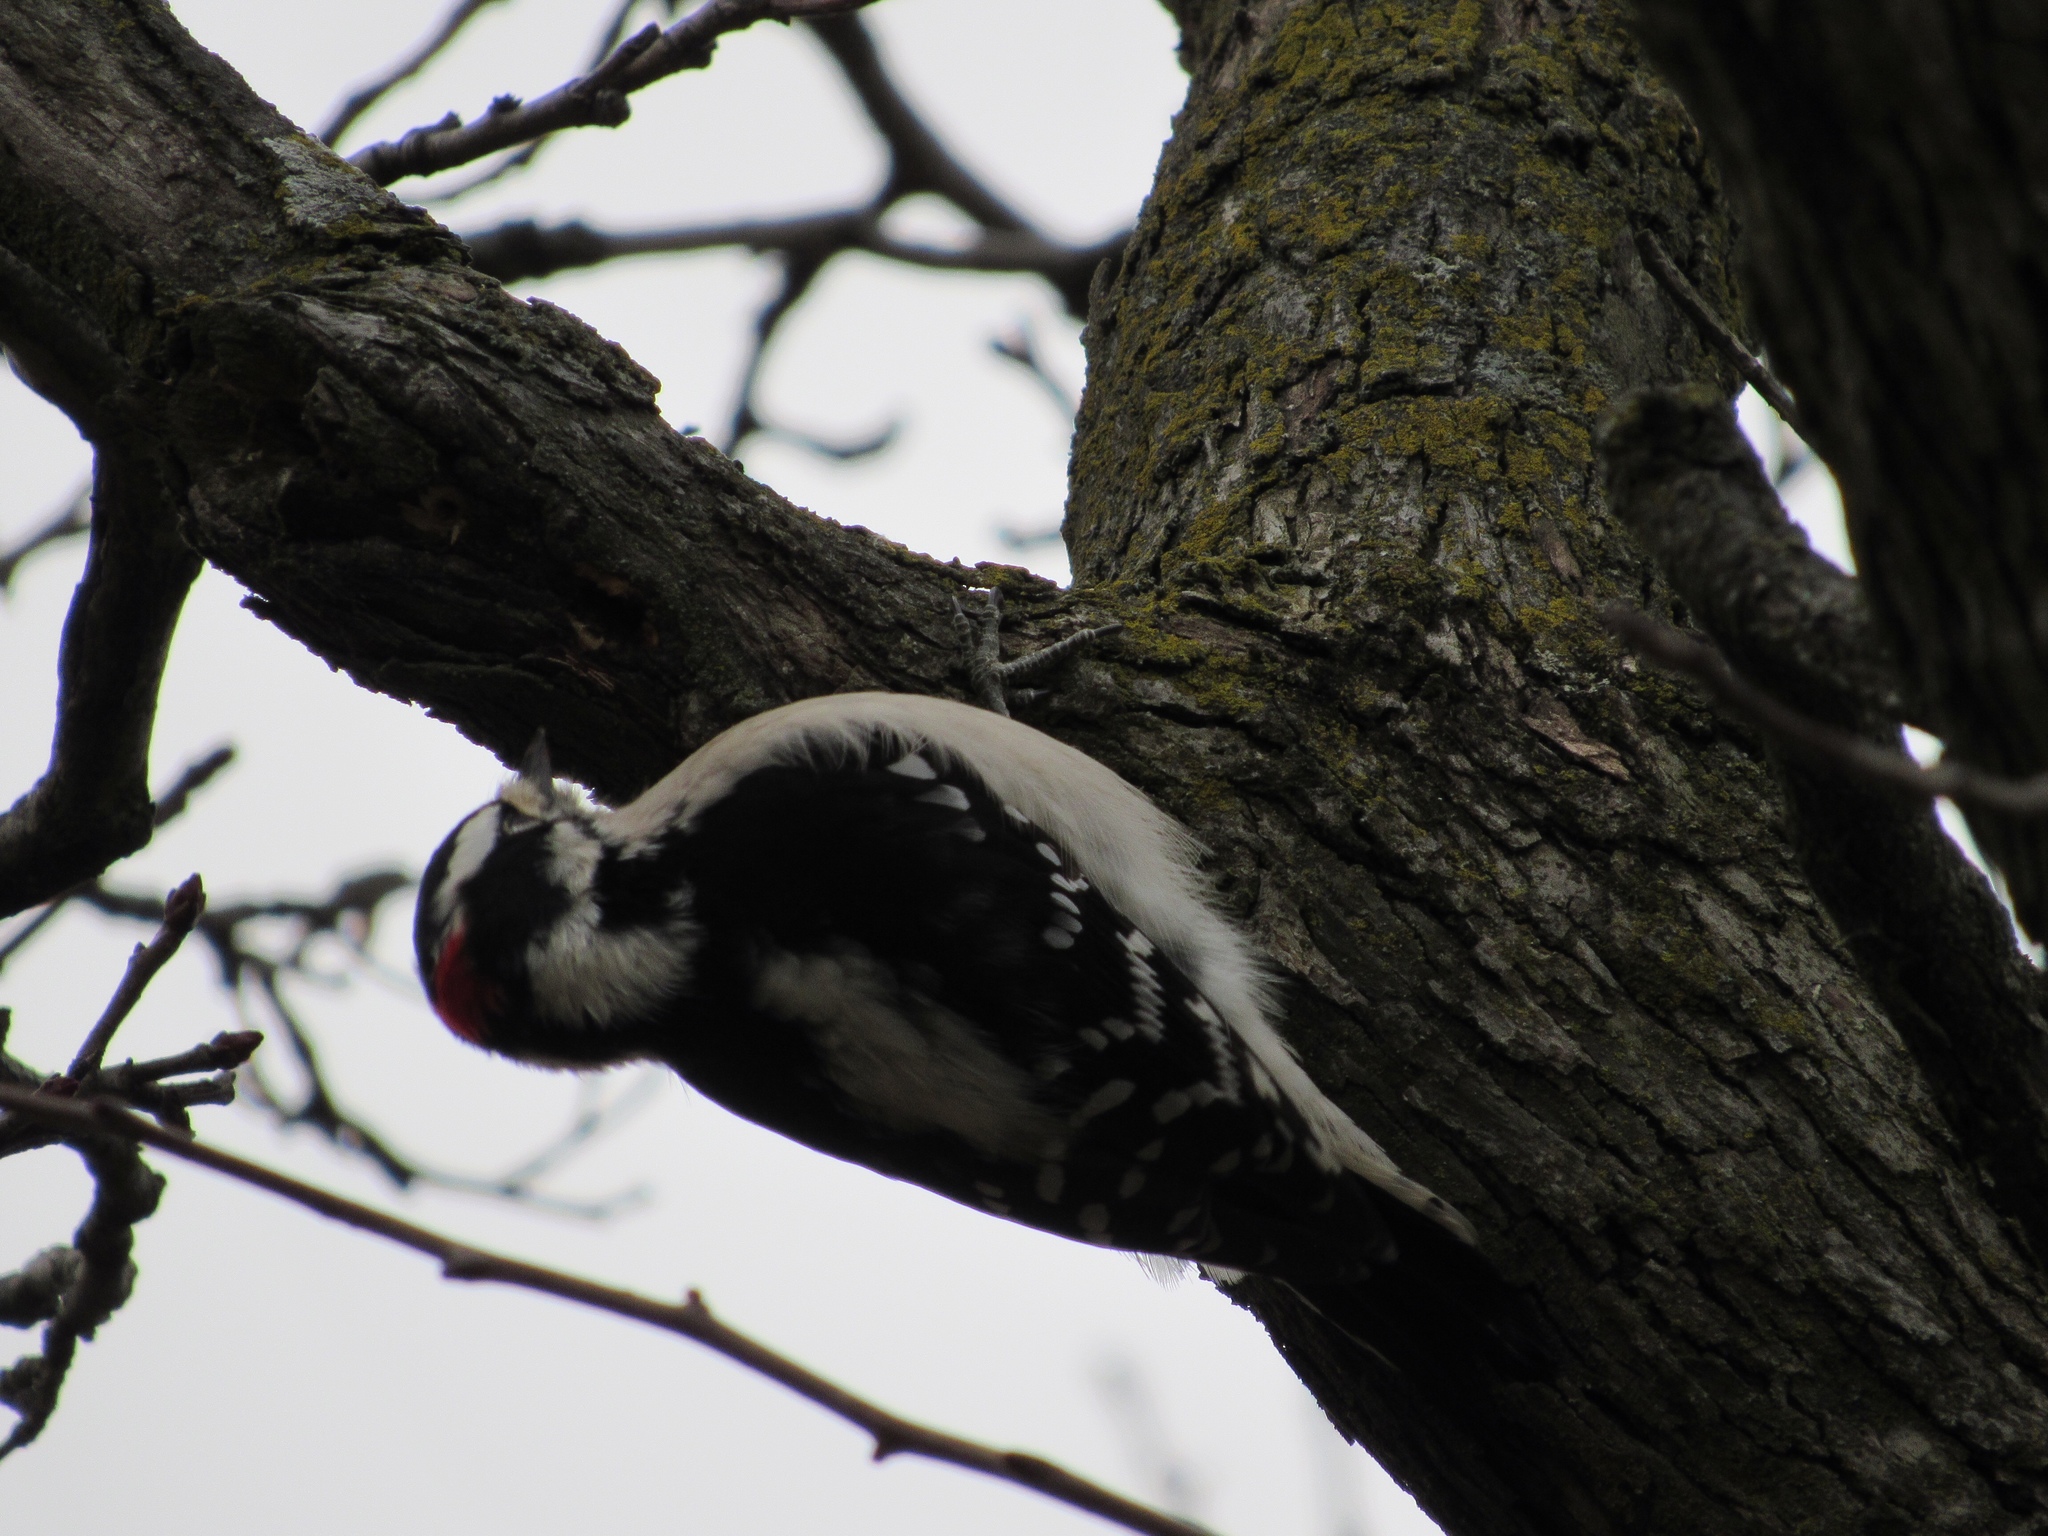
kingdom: Animalia
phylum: Chordata
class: Aves
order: Piciformes
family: Picidae
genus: Dryobates
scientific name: Dryobates pubescens
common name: Downy woodpecker
